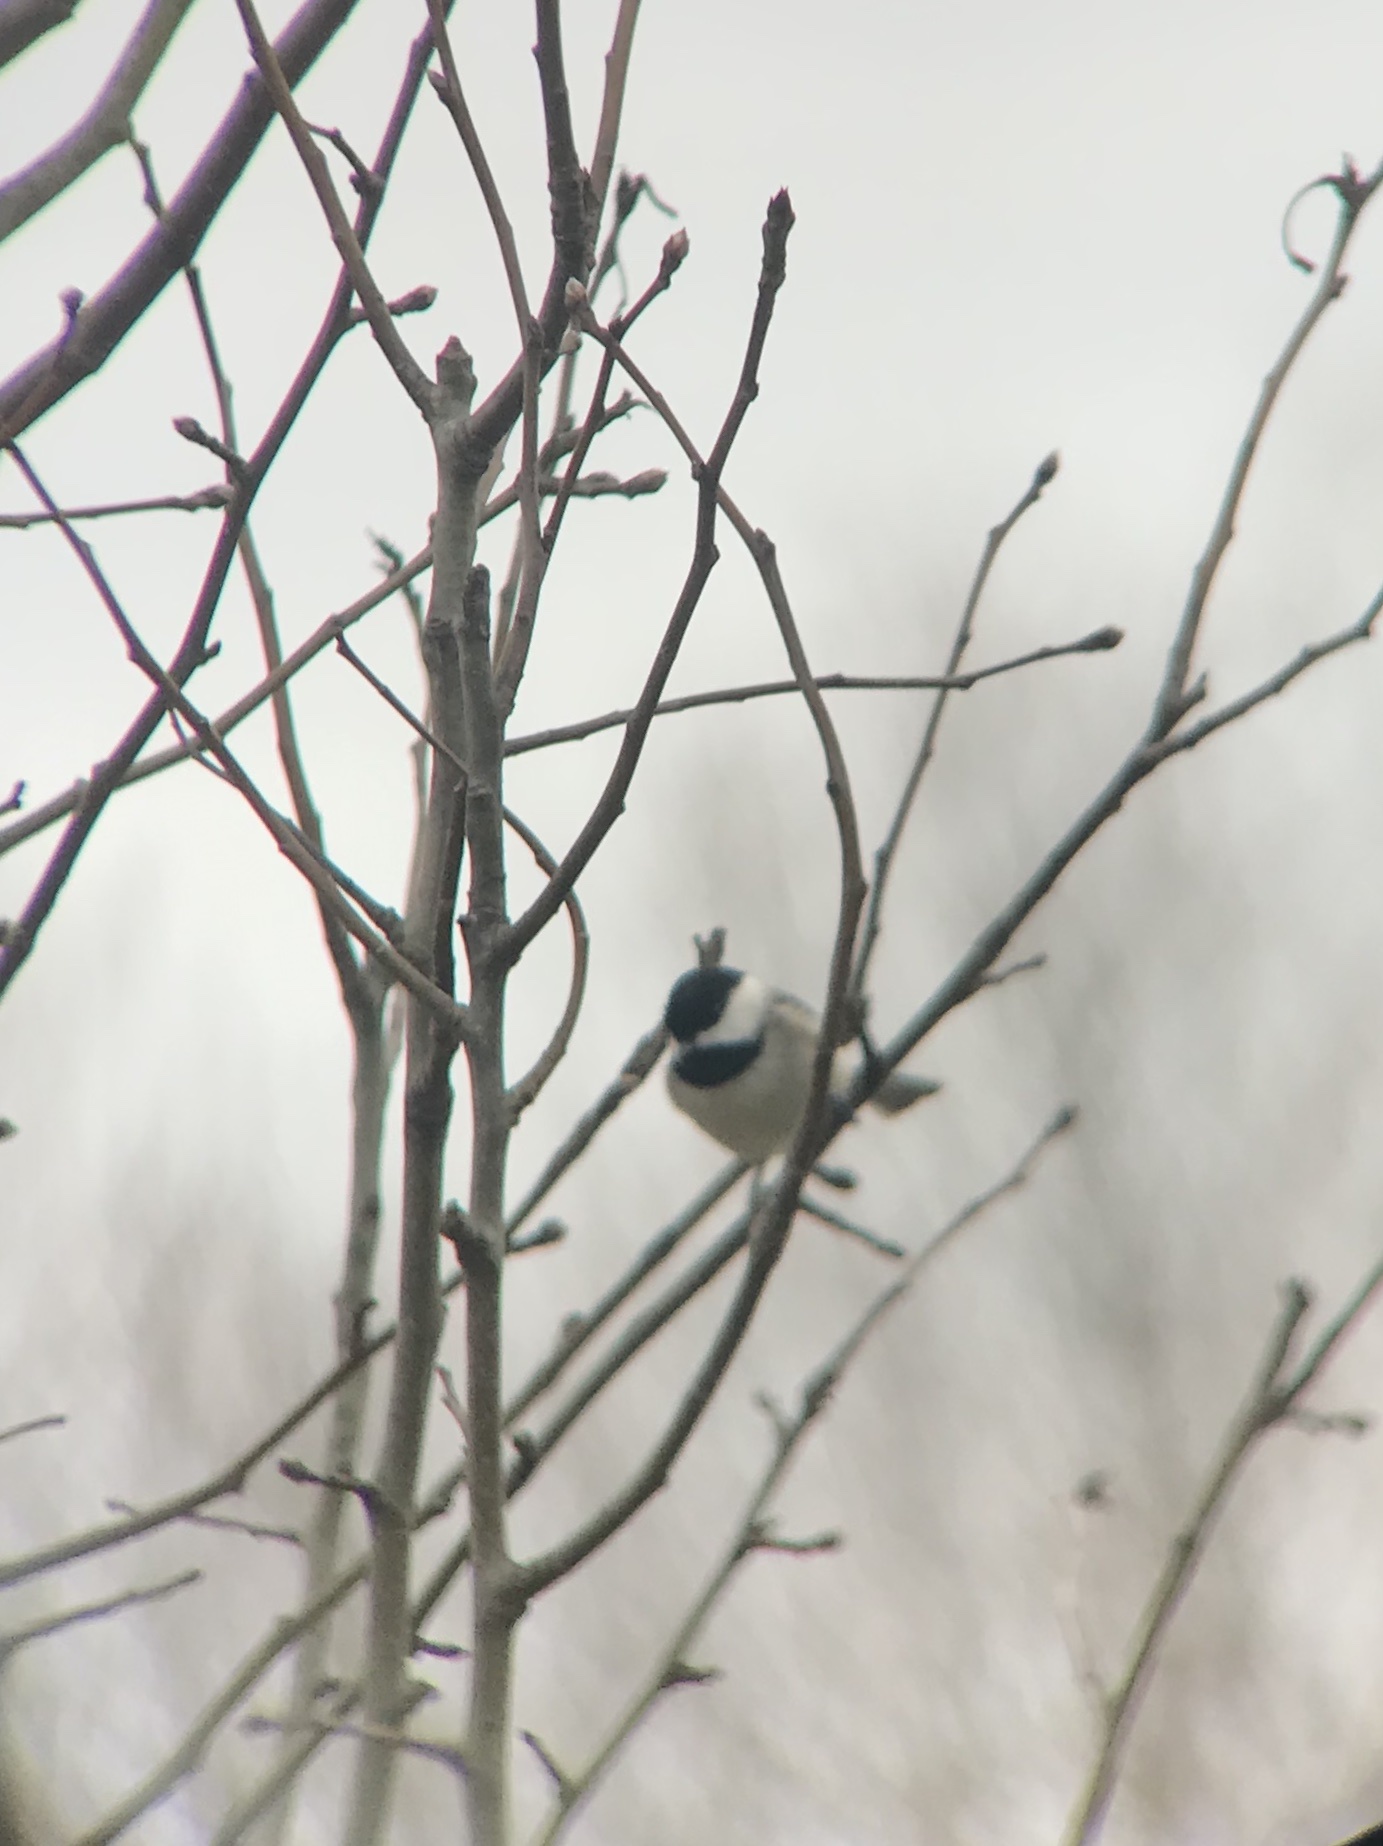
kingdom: Animalia
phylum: Chordata
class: Aves
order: Passeriformes
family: Paridae
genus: Poecile
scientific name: Poecile carolinensis
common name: Carolina chickadee
